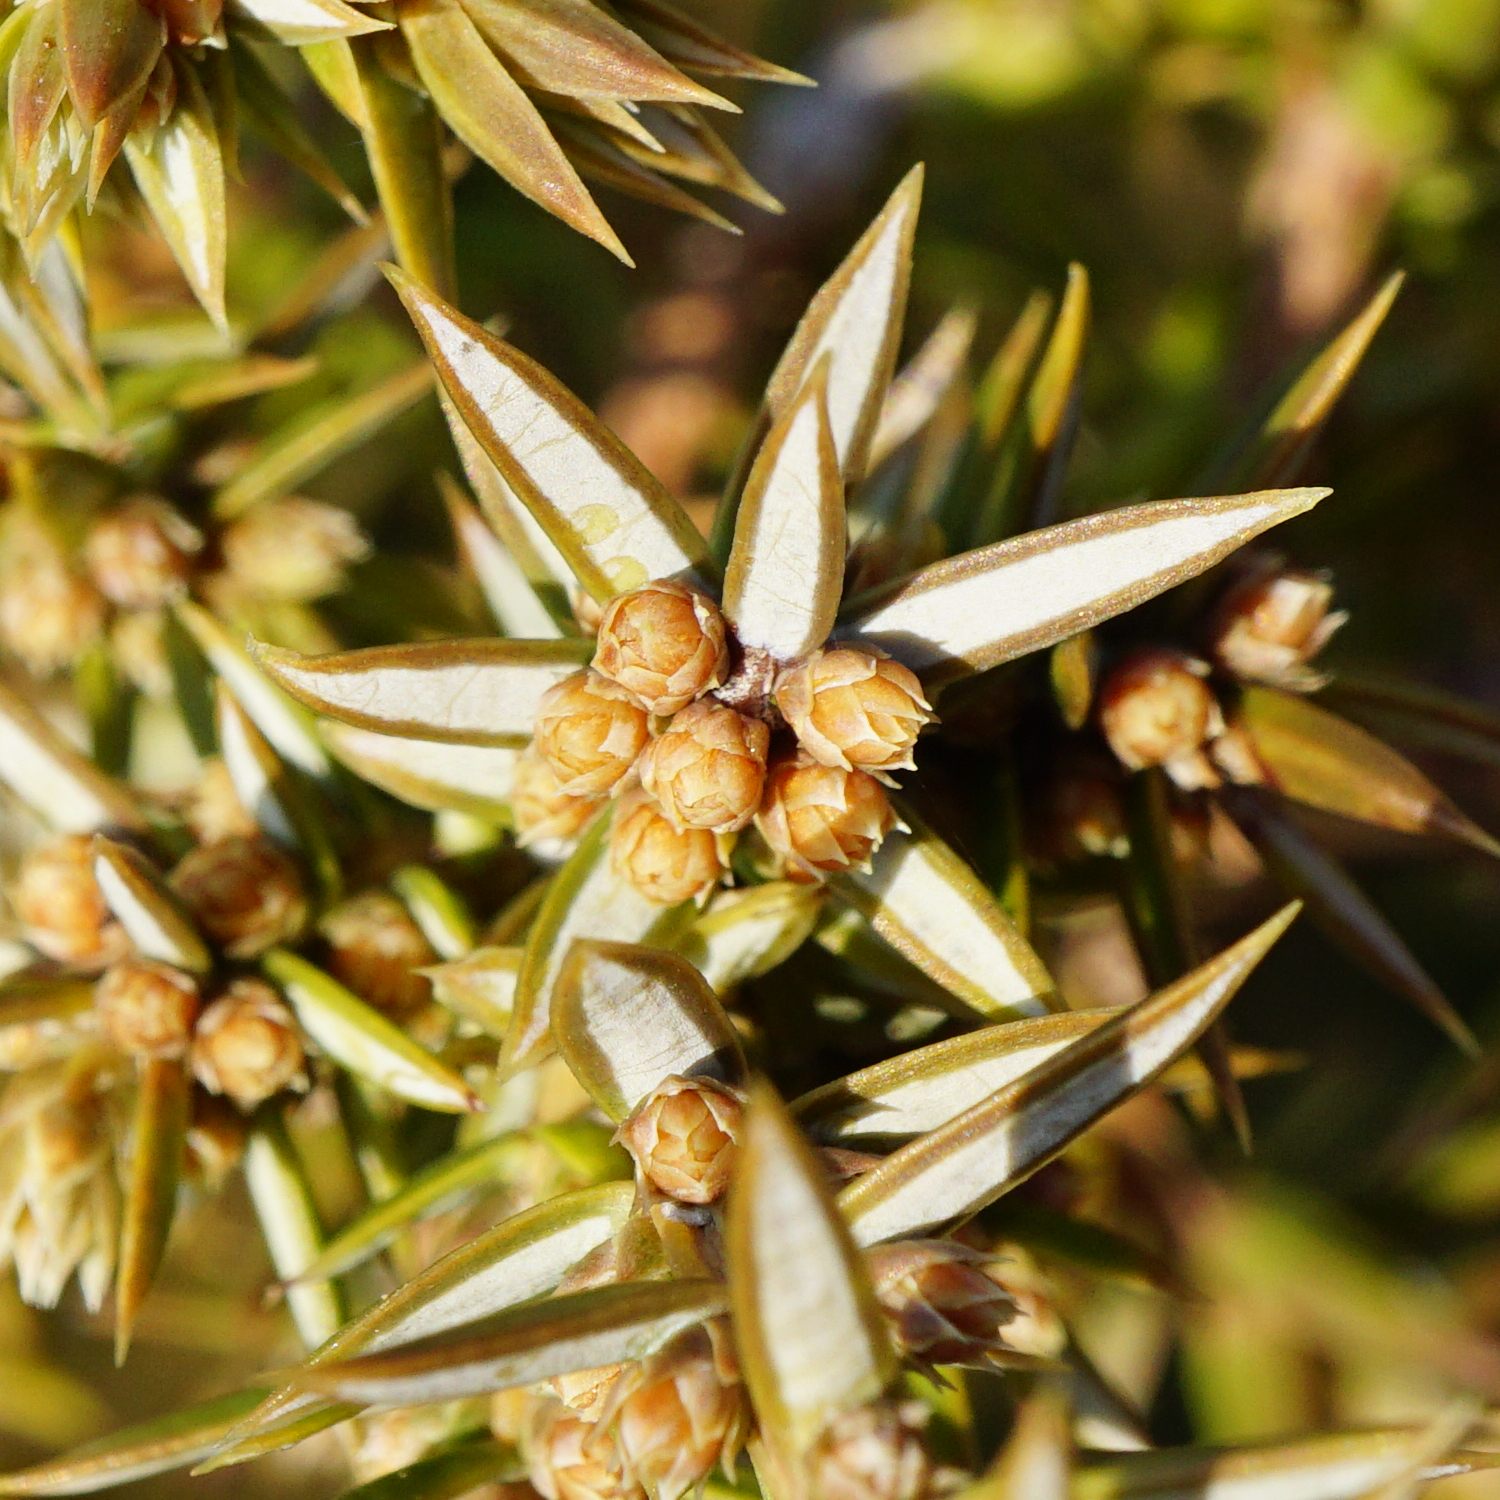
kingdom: Plantae
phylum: Tracheophyta
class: Pinopsida
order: Pinales
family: Cupressaceae
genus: Juniperus
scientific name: Juniperus communis
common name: Common juniper
